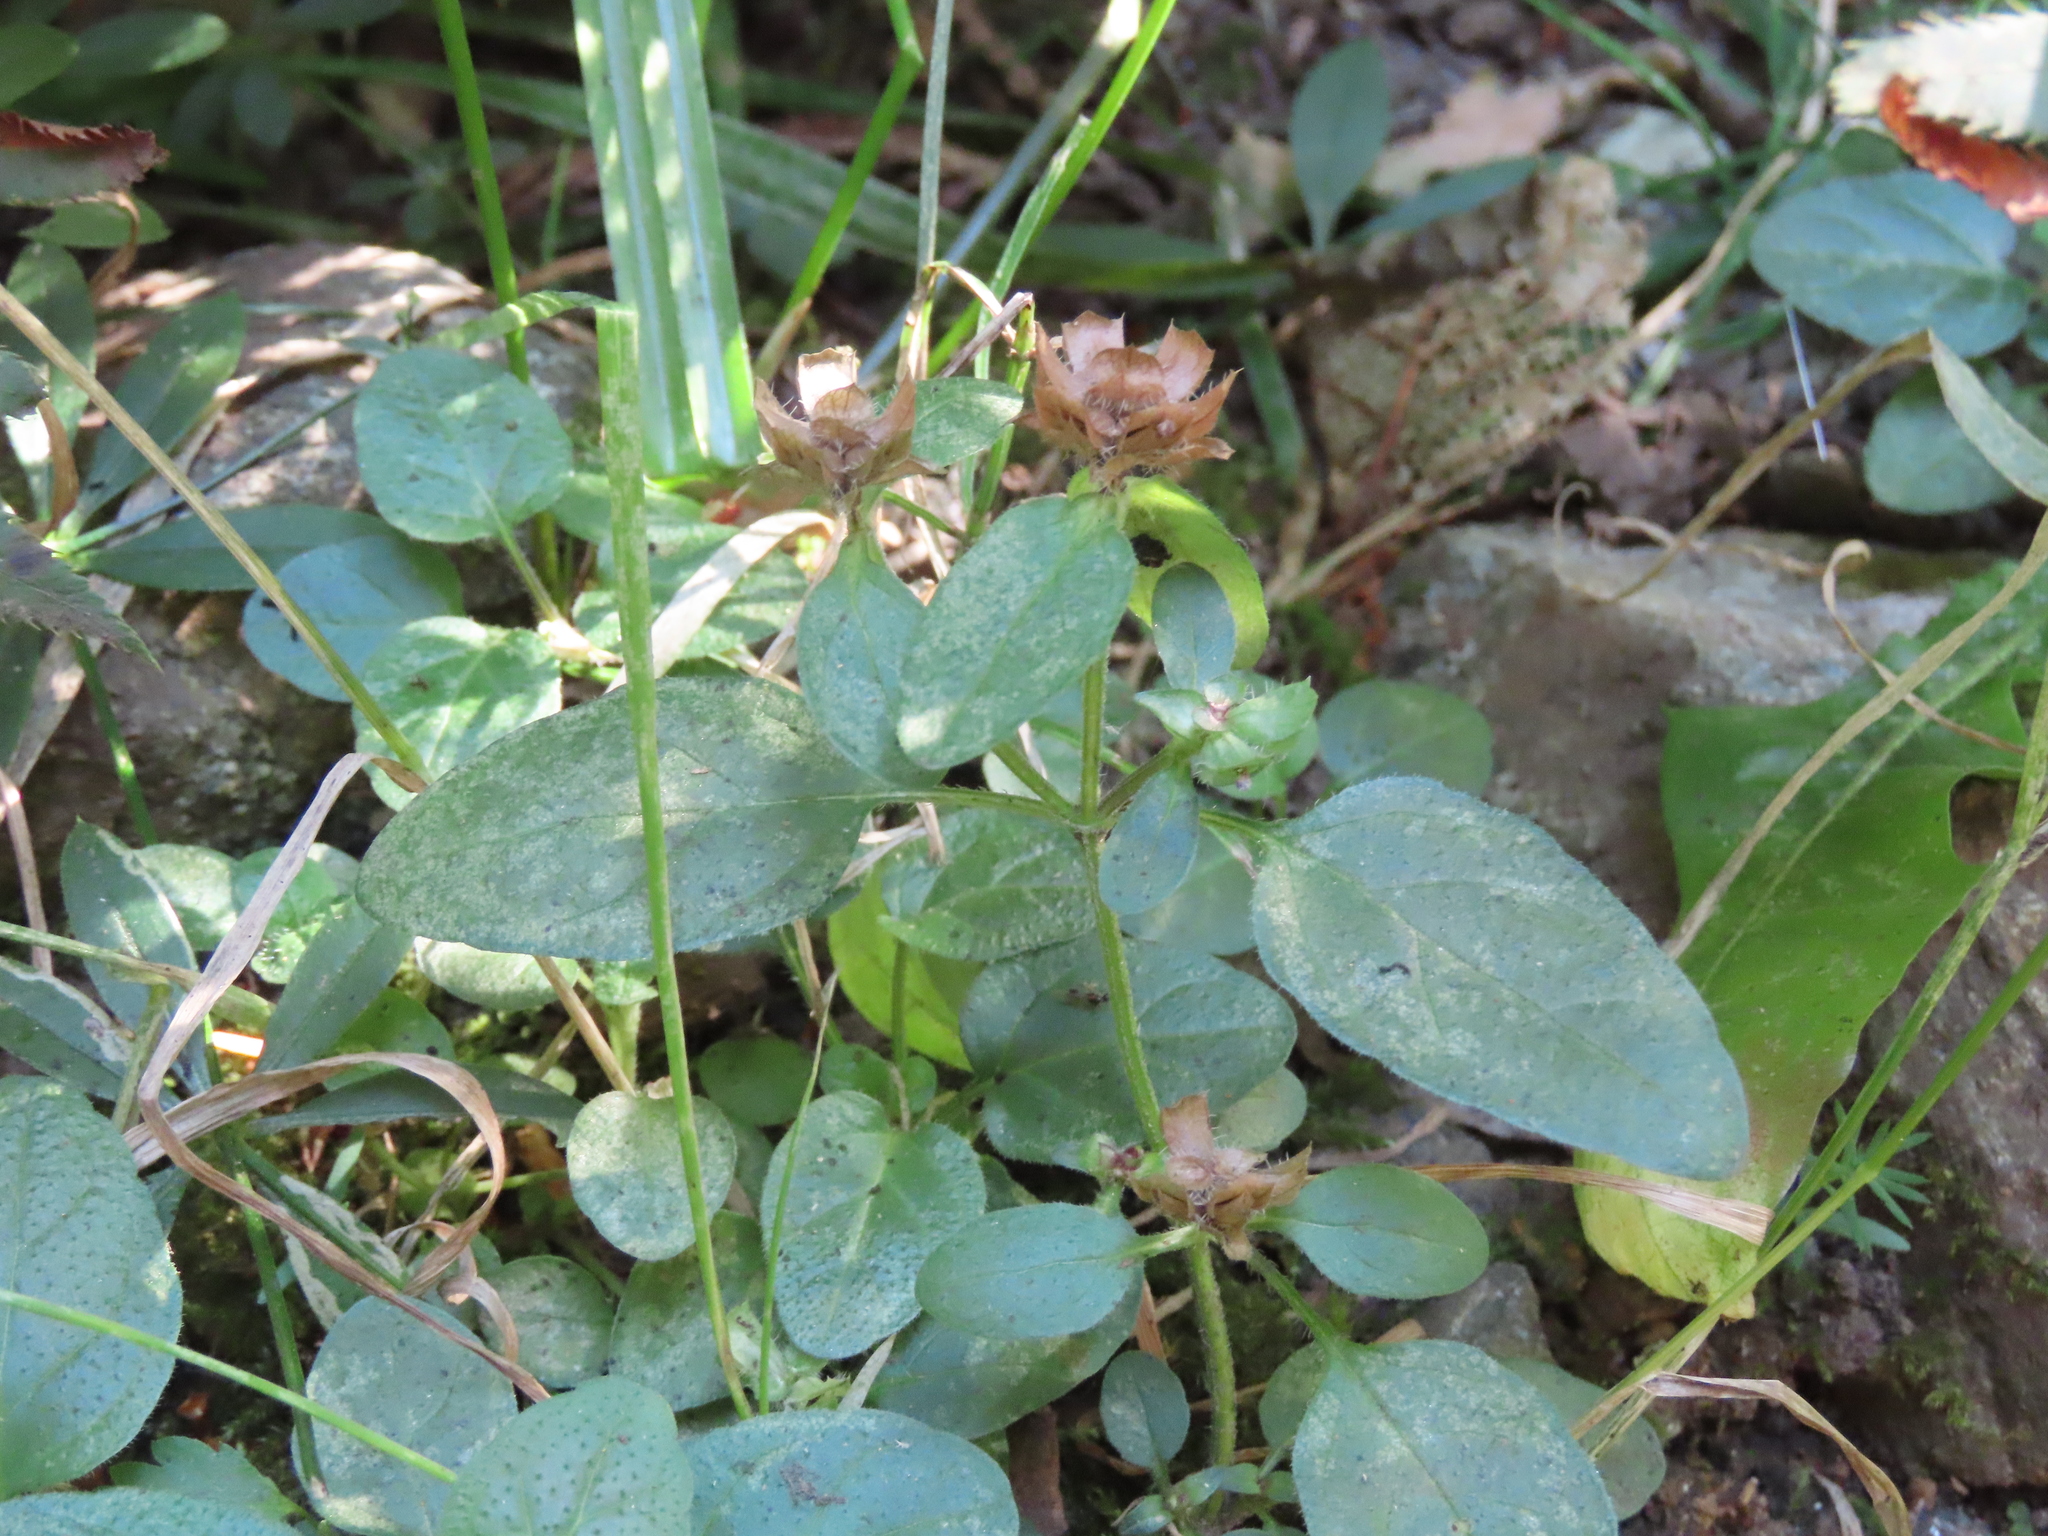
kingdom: Plantae
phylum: Tracheophyta
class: Magnoliopsida
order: Lamiales
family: Lamiaceae
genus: Prunella
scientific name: Prunella vulgaris
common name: Heal-all
